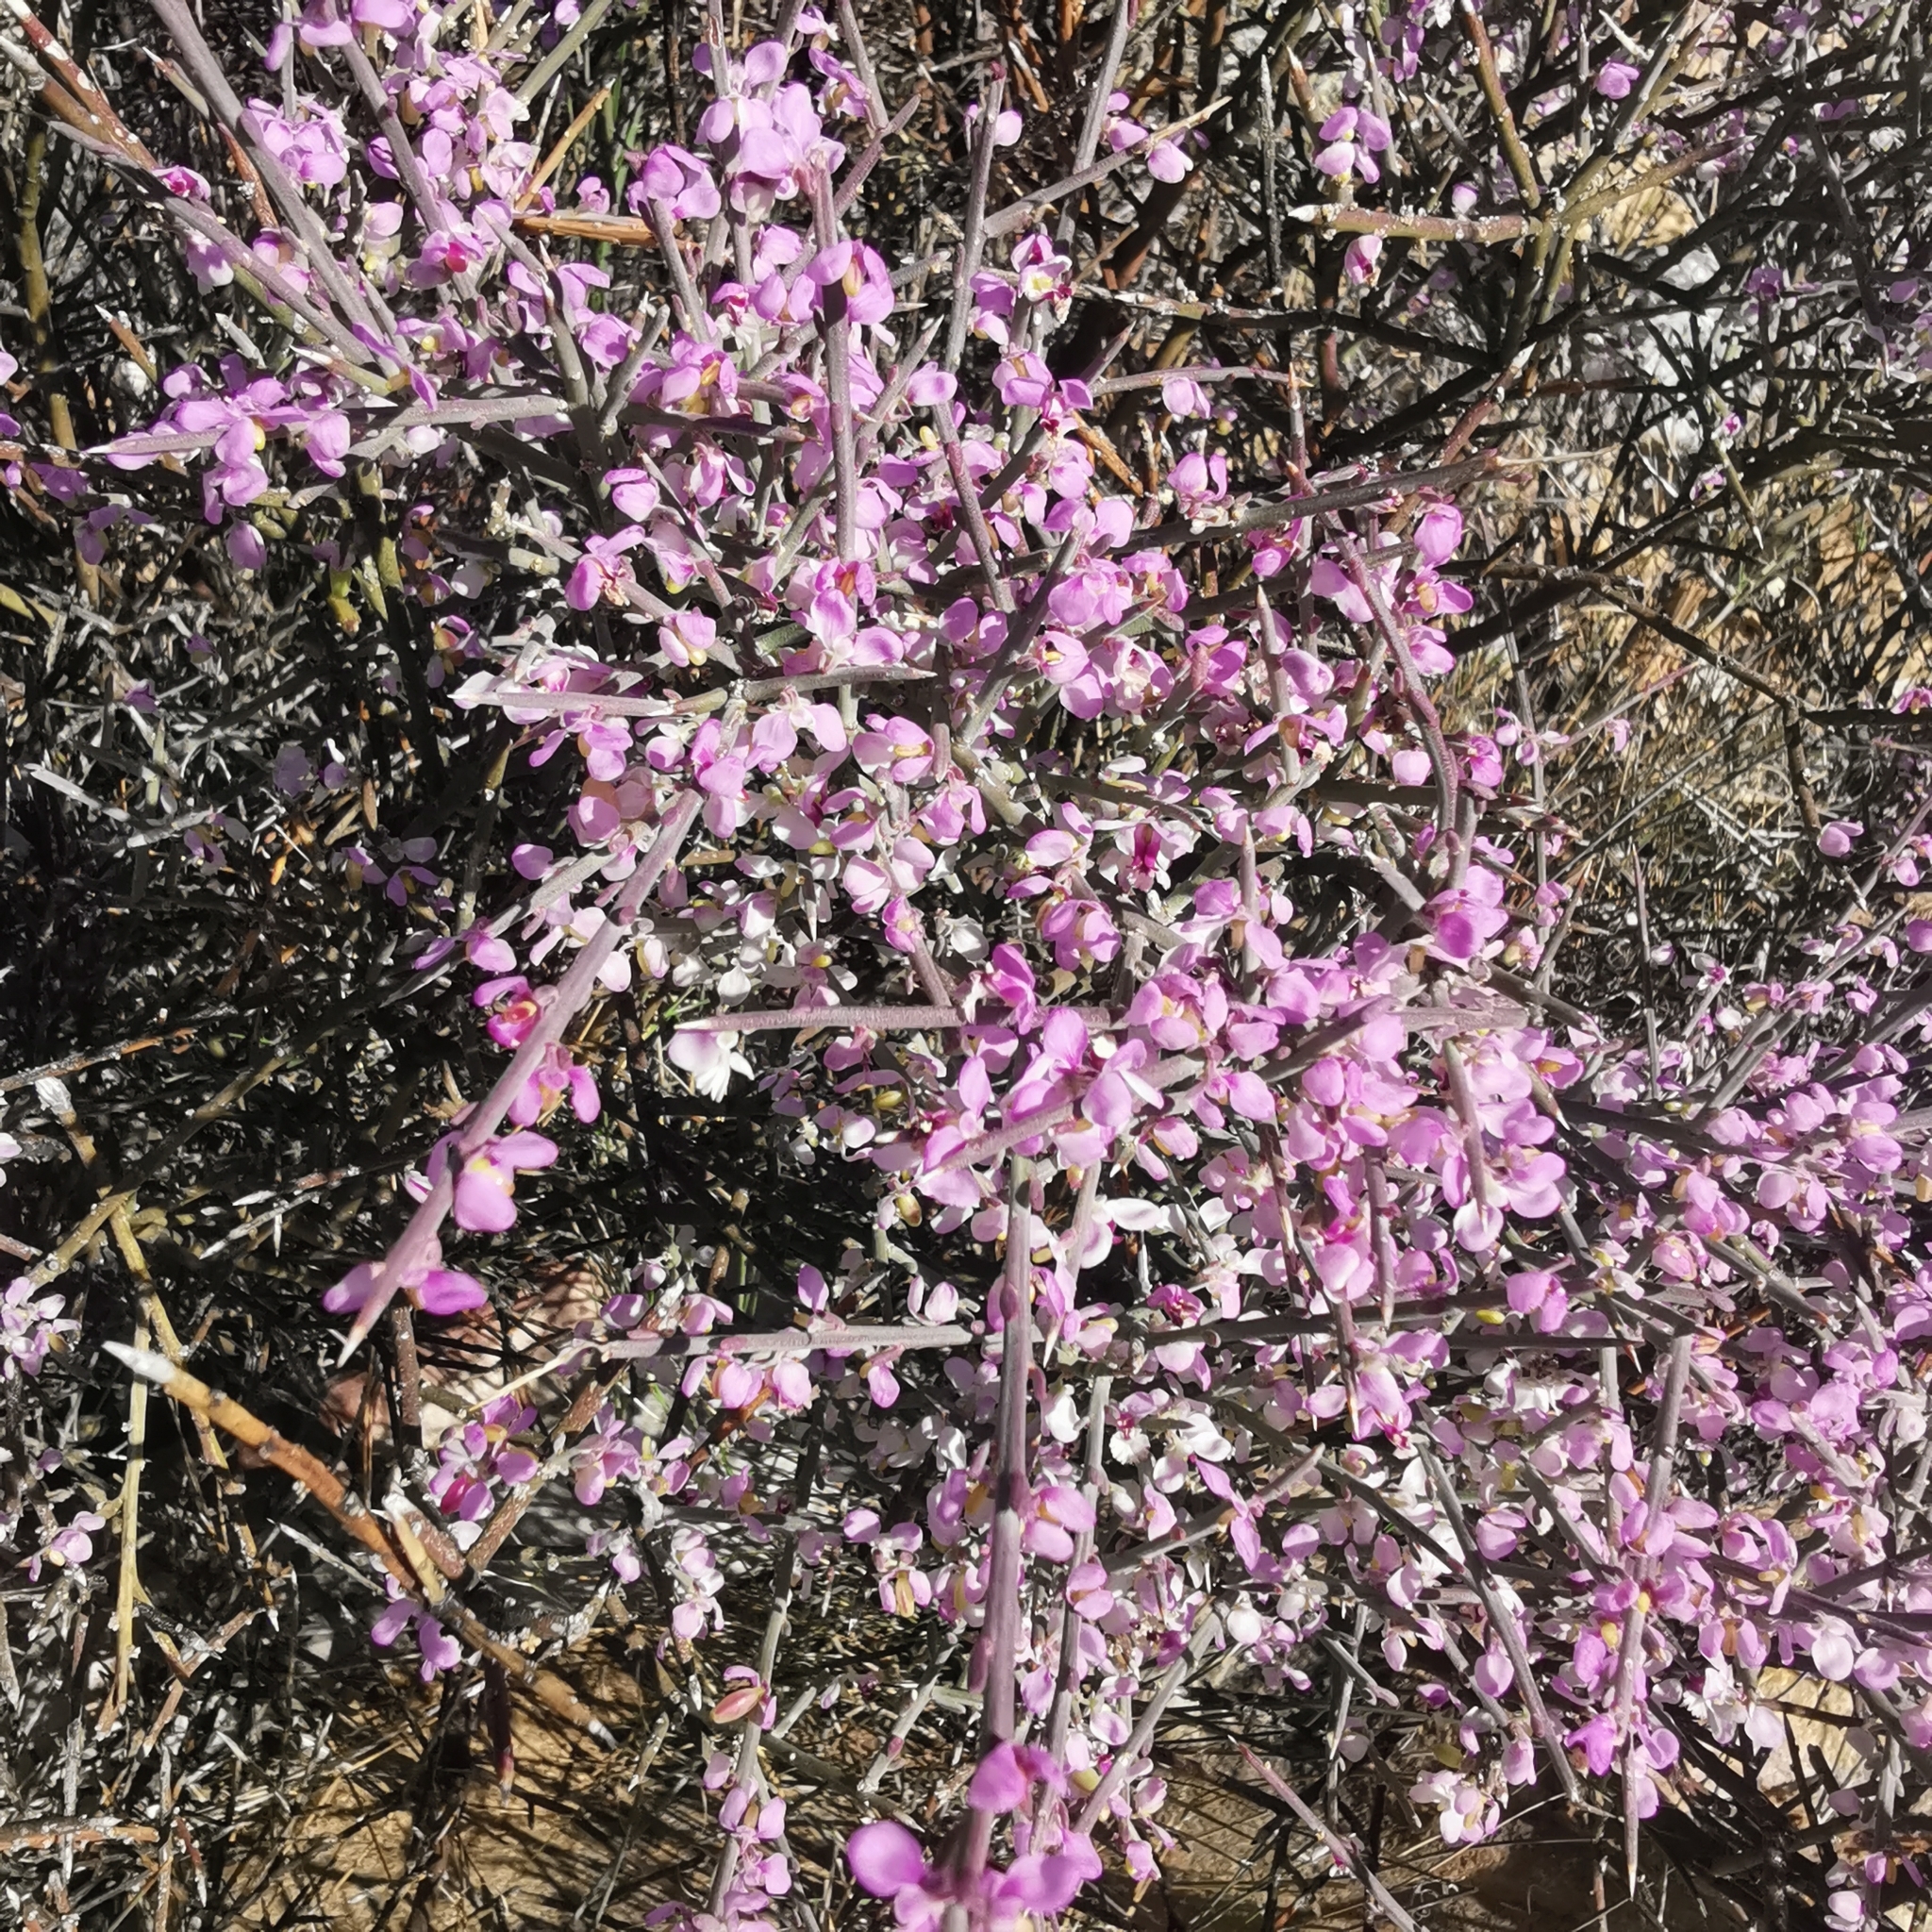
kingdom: Plantae
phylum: Tracheophyta
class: Magnoliopsida
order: Fabales
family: Polygalaceae
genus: Muraltia
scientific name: Muraltia spinosa
